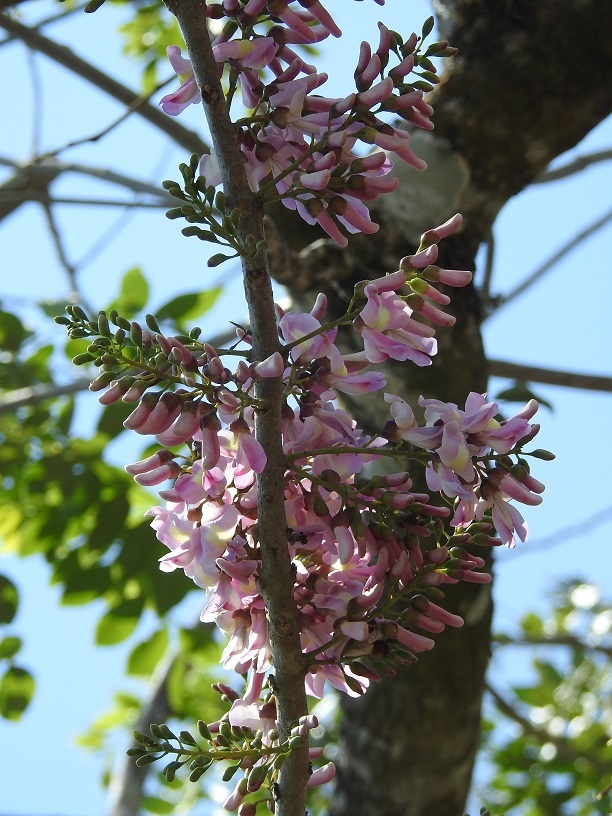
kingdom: Plantae
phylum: Tracheophyta
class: Magnoliopsida
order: Fabales
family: Fabaceae
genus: Gliricidia
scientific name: Gliricidia sepium
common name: Quickstick
